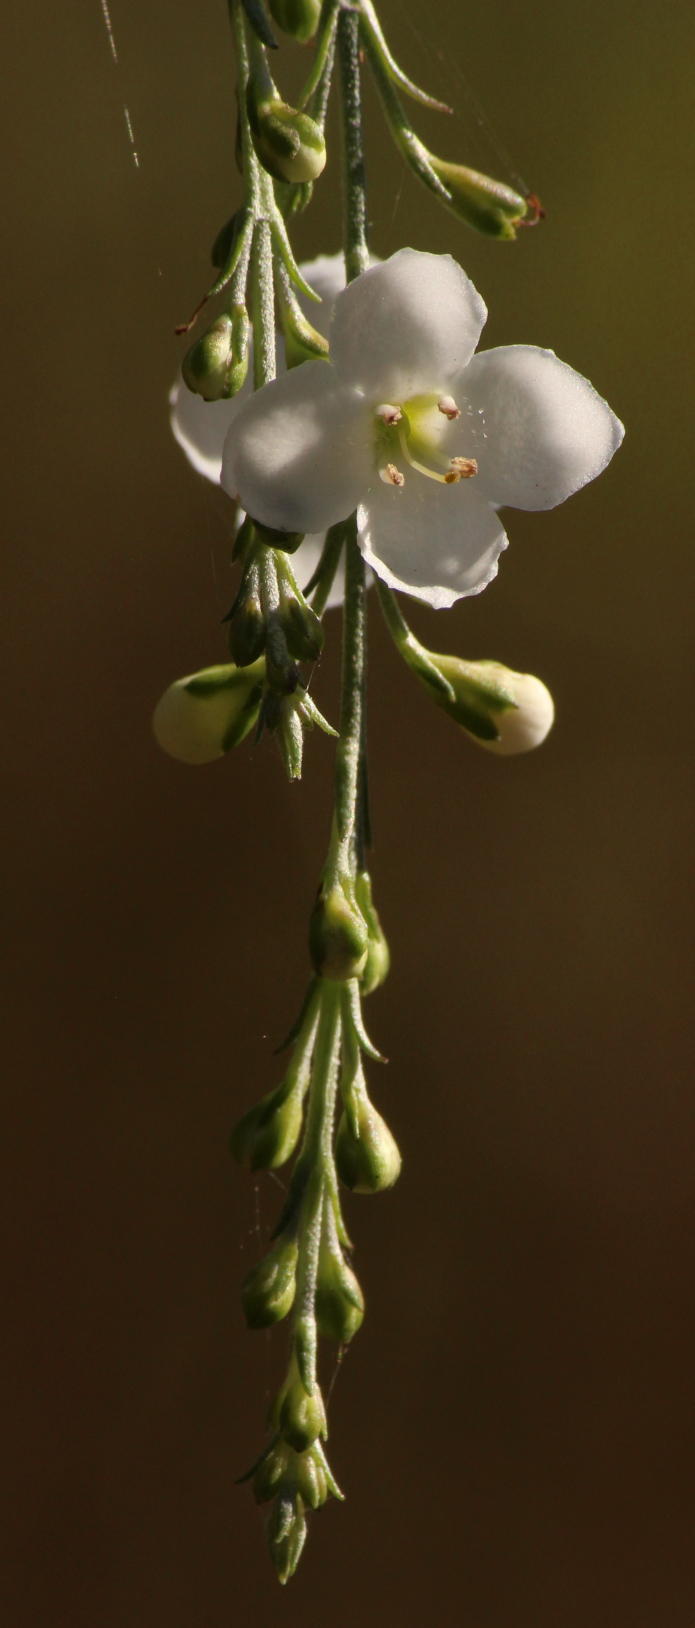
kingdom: Plantae
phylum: Tracheophyta
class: Magnoliopsida
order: Lamiales
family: Scrophulariaceae
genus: Buddleja
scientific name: Buddleja virgata
